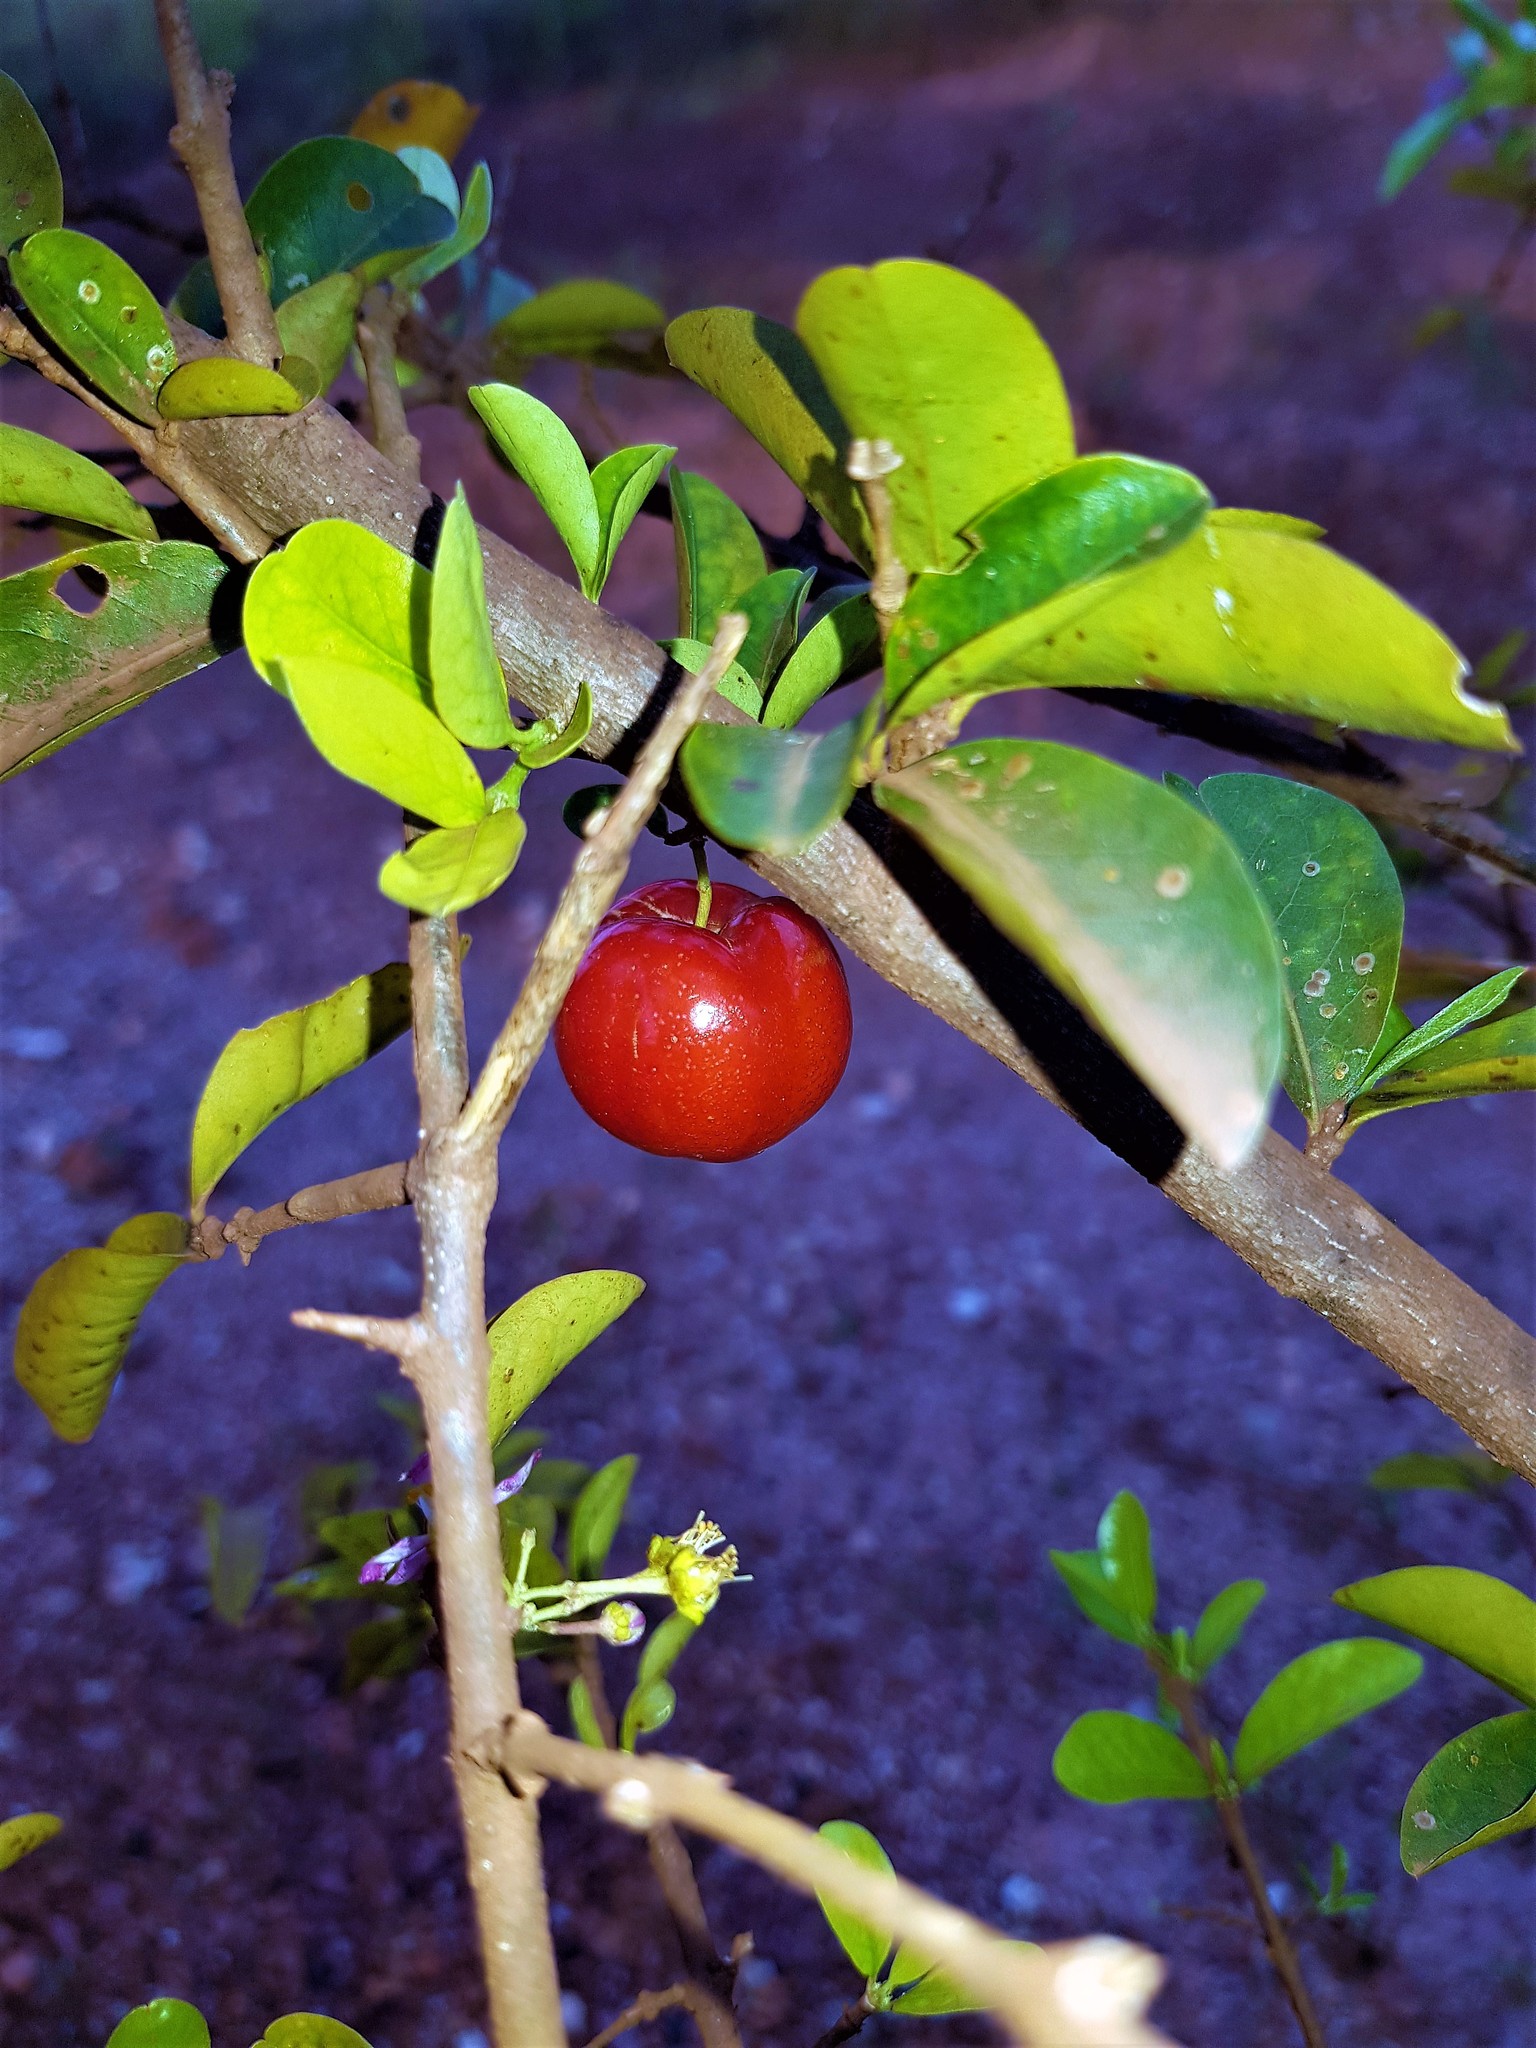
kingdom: Plantae
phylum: Tracheophyta
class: Magnoliopsida
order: Malpighiales
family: Malpighiaceae
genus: Malpighia
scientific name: Malpighia glabra
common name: Barbados cherry
